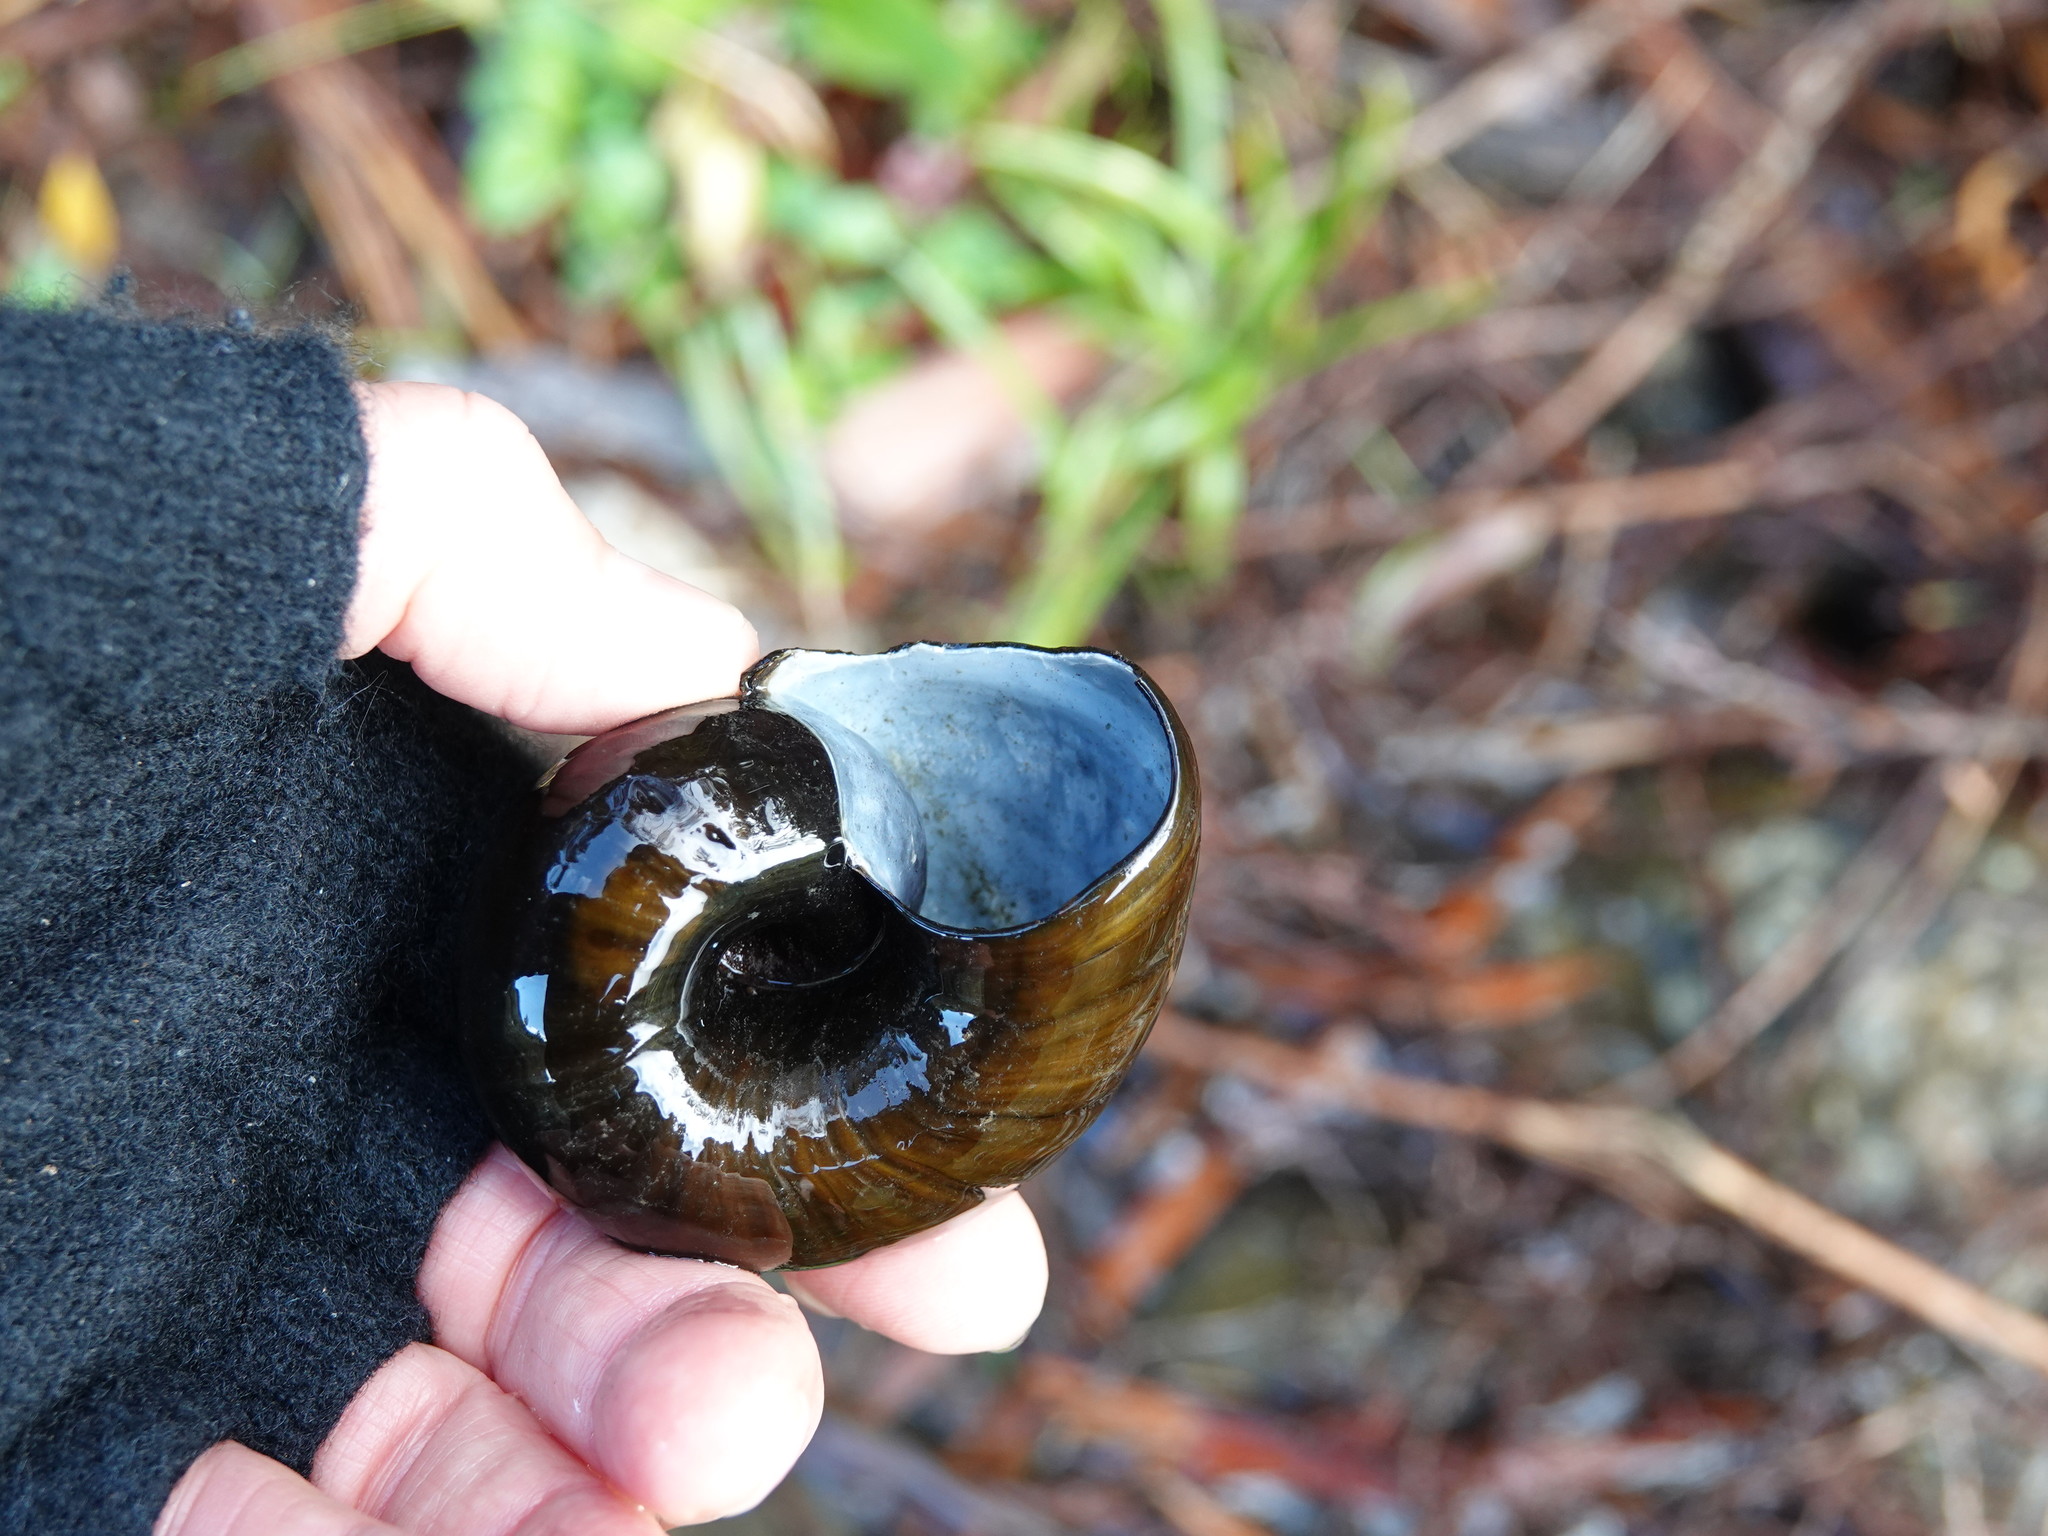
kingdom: Animalia
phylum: Mollusca
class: Gastropoda
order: Stylommatophora
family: Rhytididae
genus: Paryphanta
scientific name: Paryphanta busbyi
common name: Kauri snail
